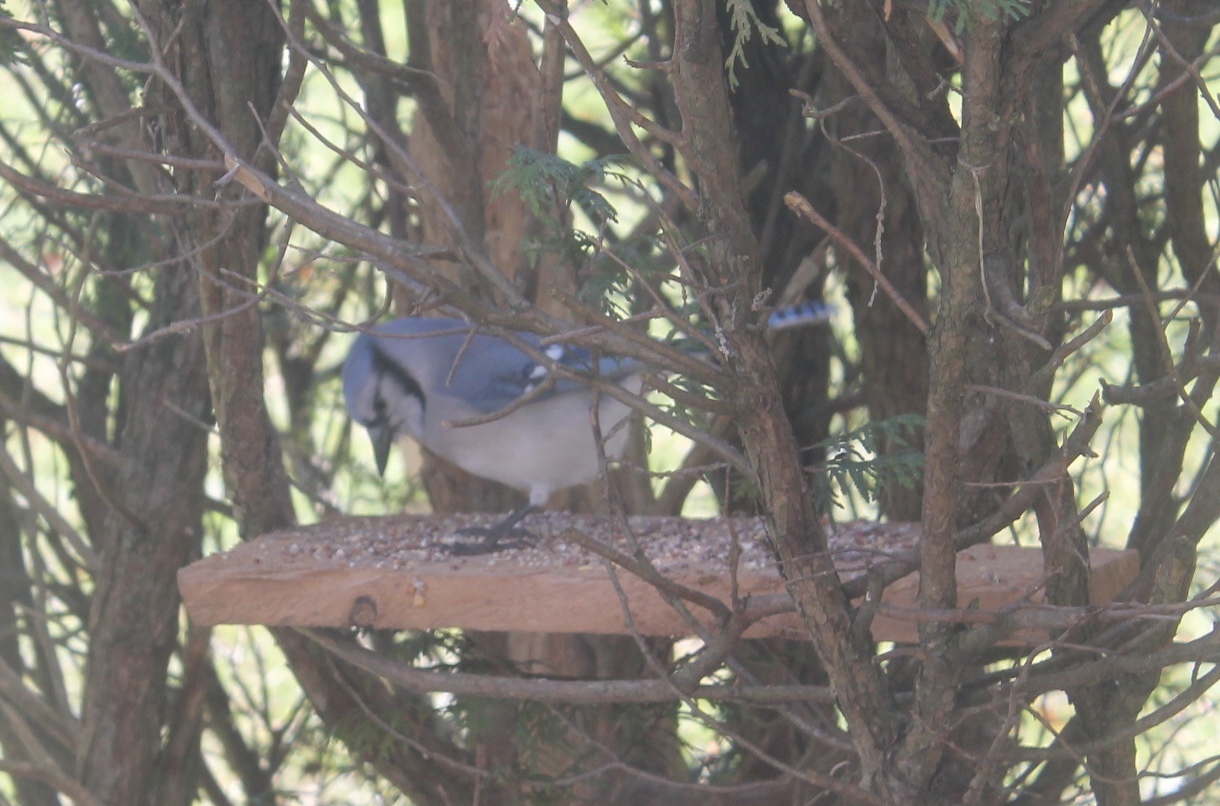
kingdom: Animalia
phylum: Chordata
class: Aves
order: Passeriformes
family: Corvidae
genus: Cyanocitta
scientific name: Cyanocitta cristata
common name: Blue jay
